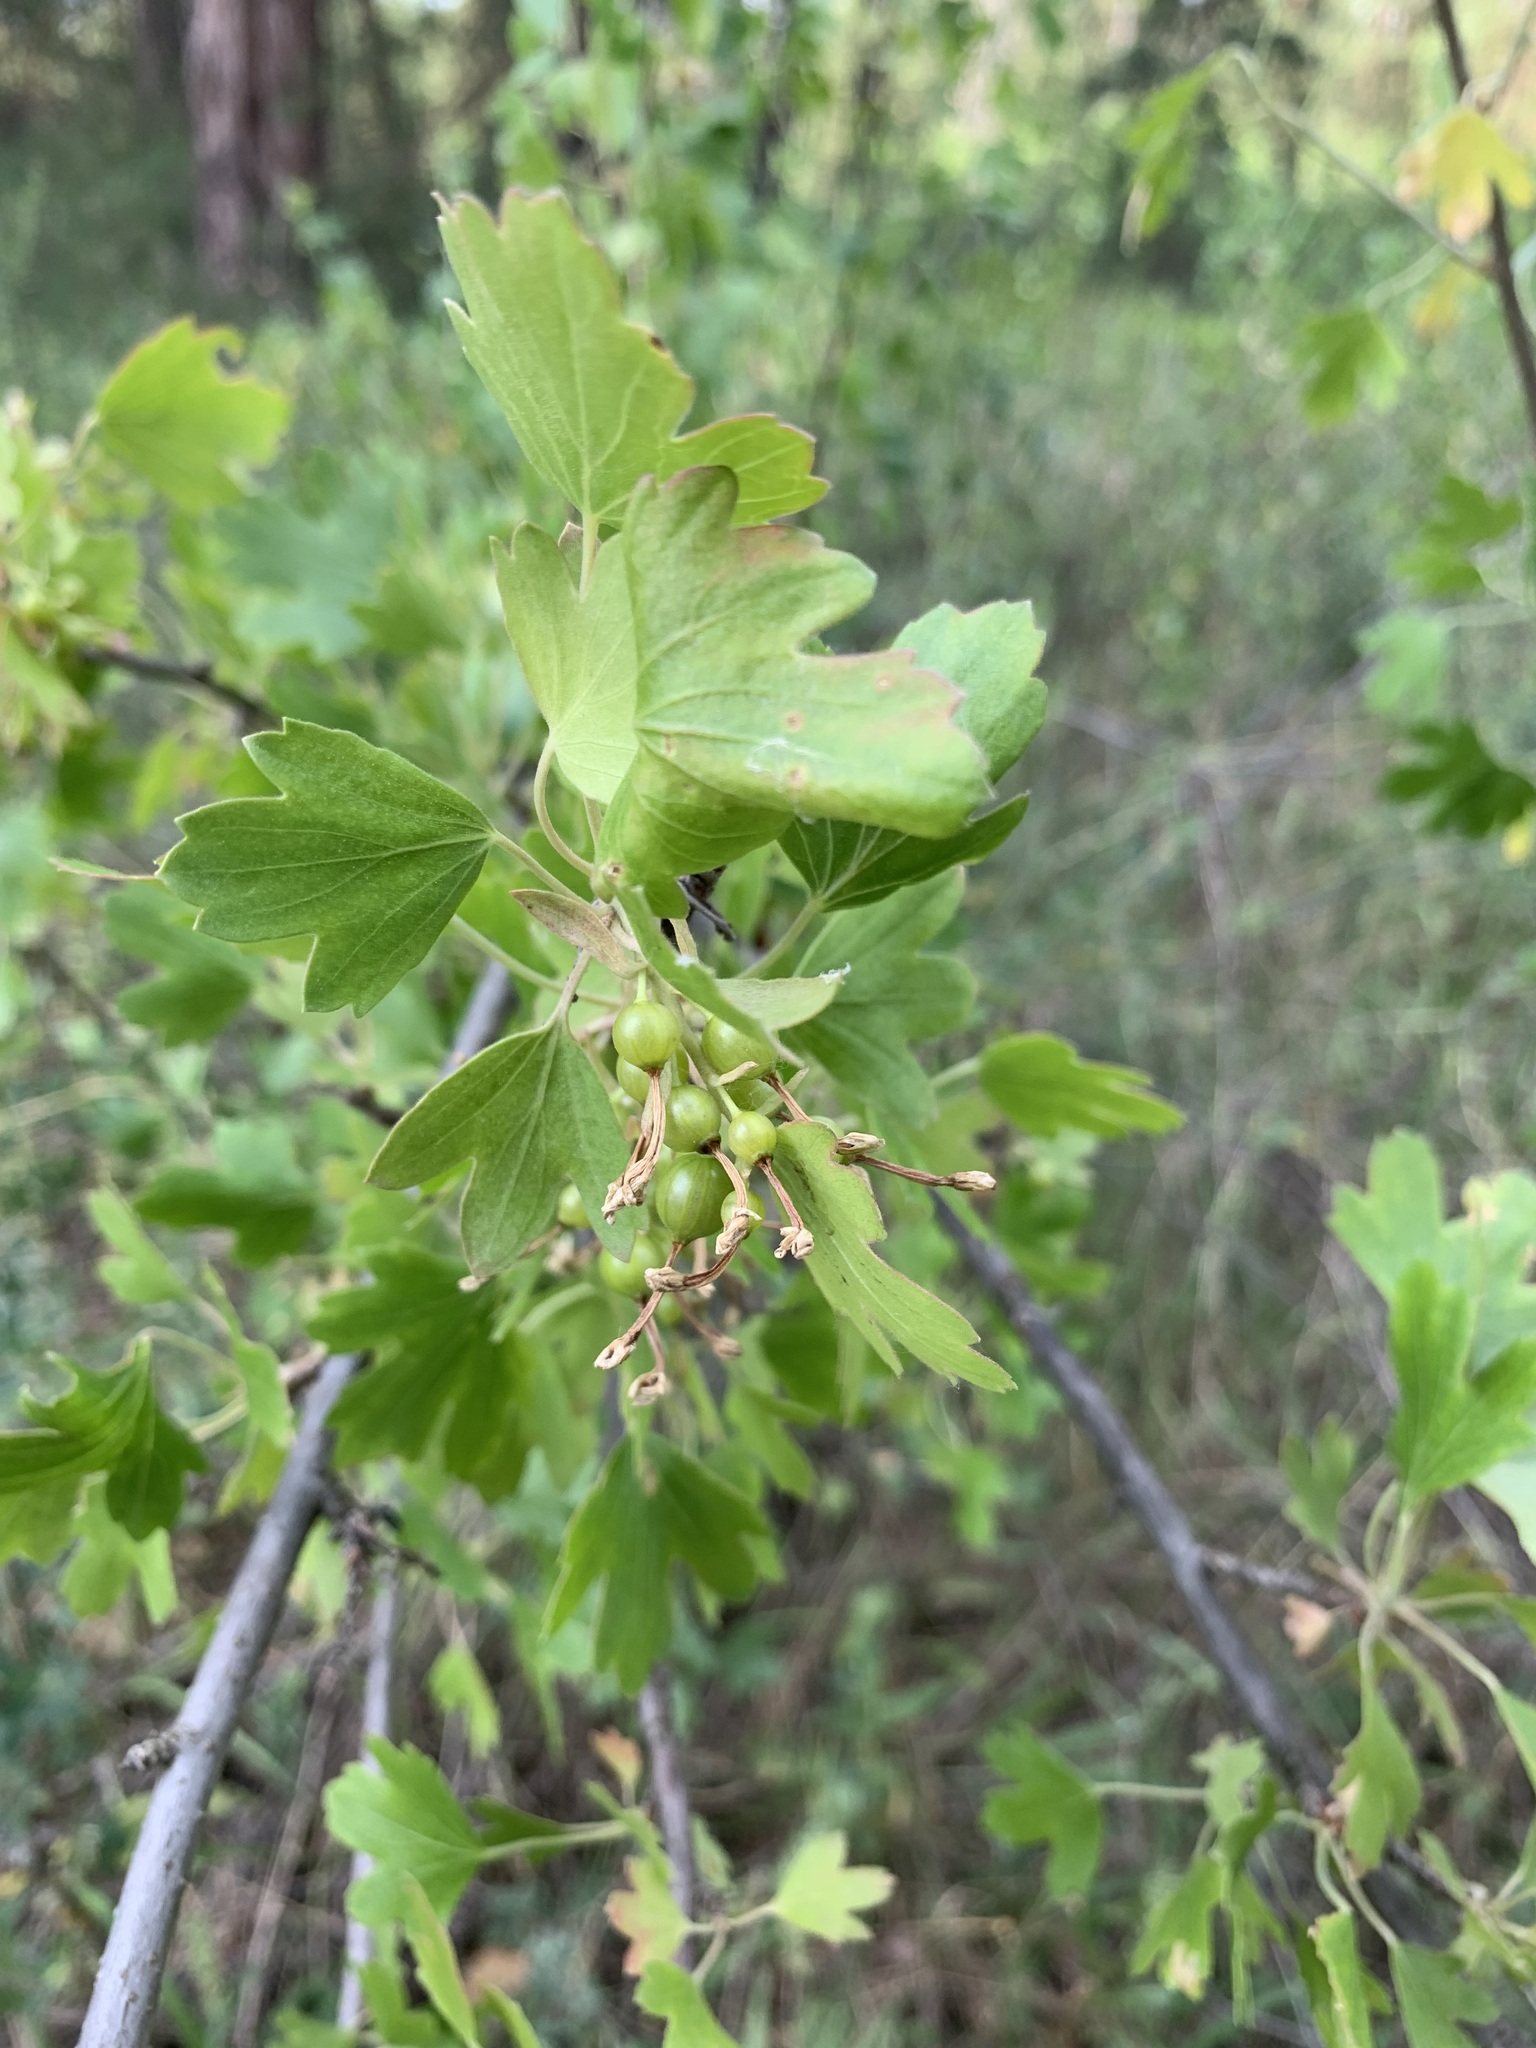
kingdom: Plantae
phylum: Tracheophyta
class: Magnoliopsida
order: Saxifragales
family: Grossulariaceae
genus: Ribes
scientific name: Ribes aureum
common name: Golden currant
